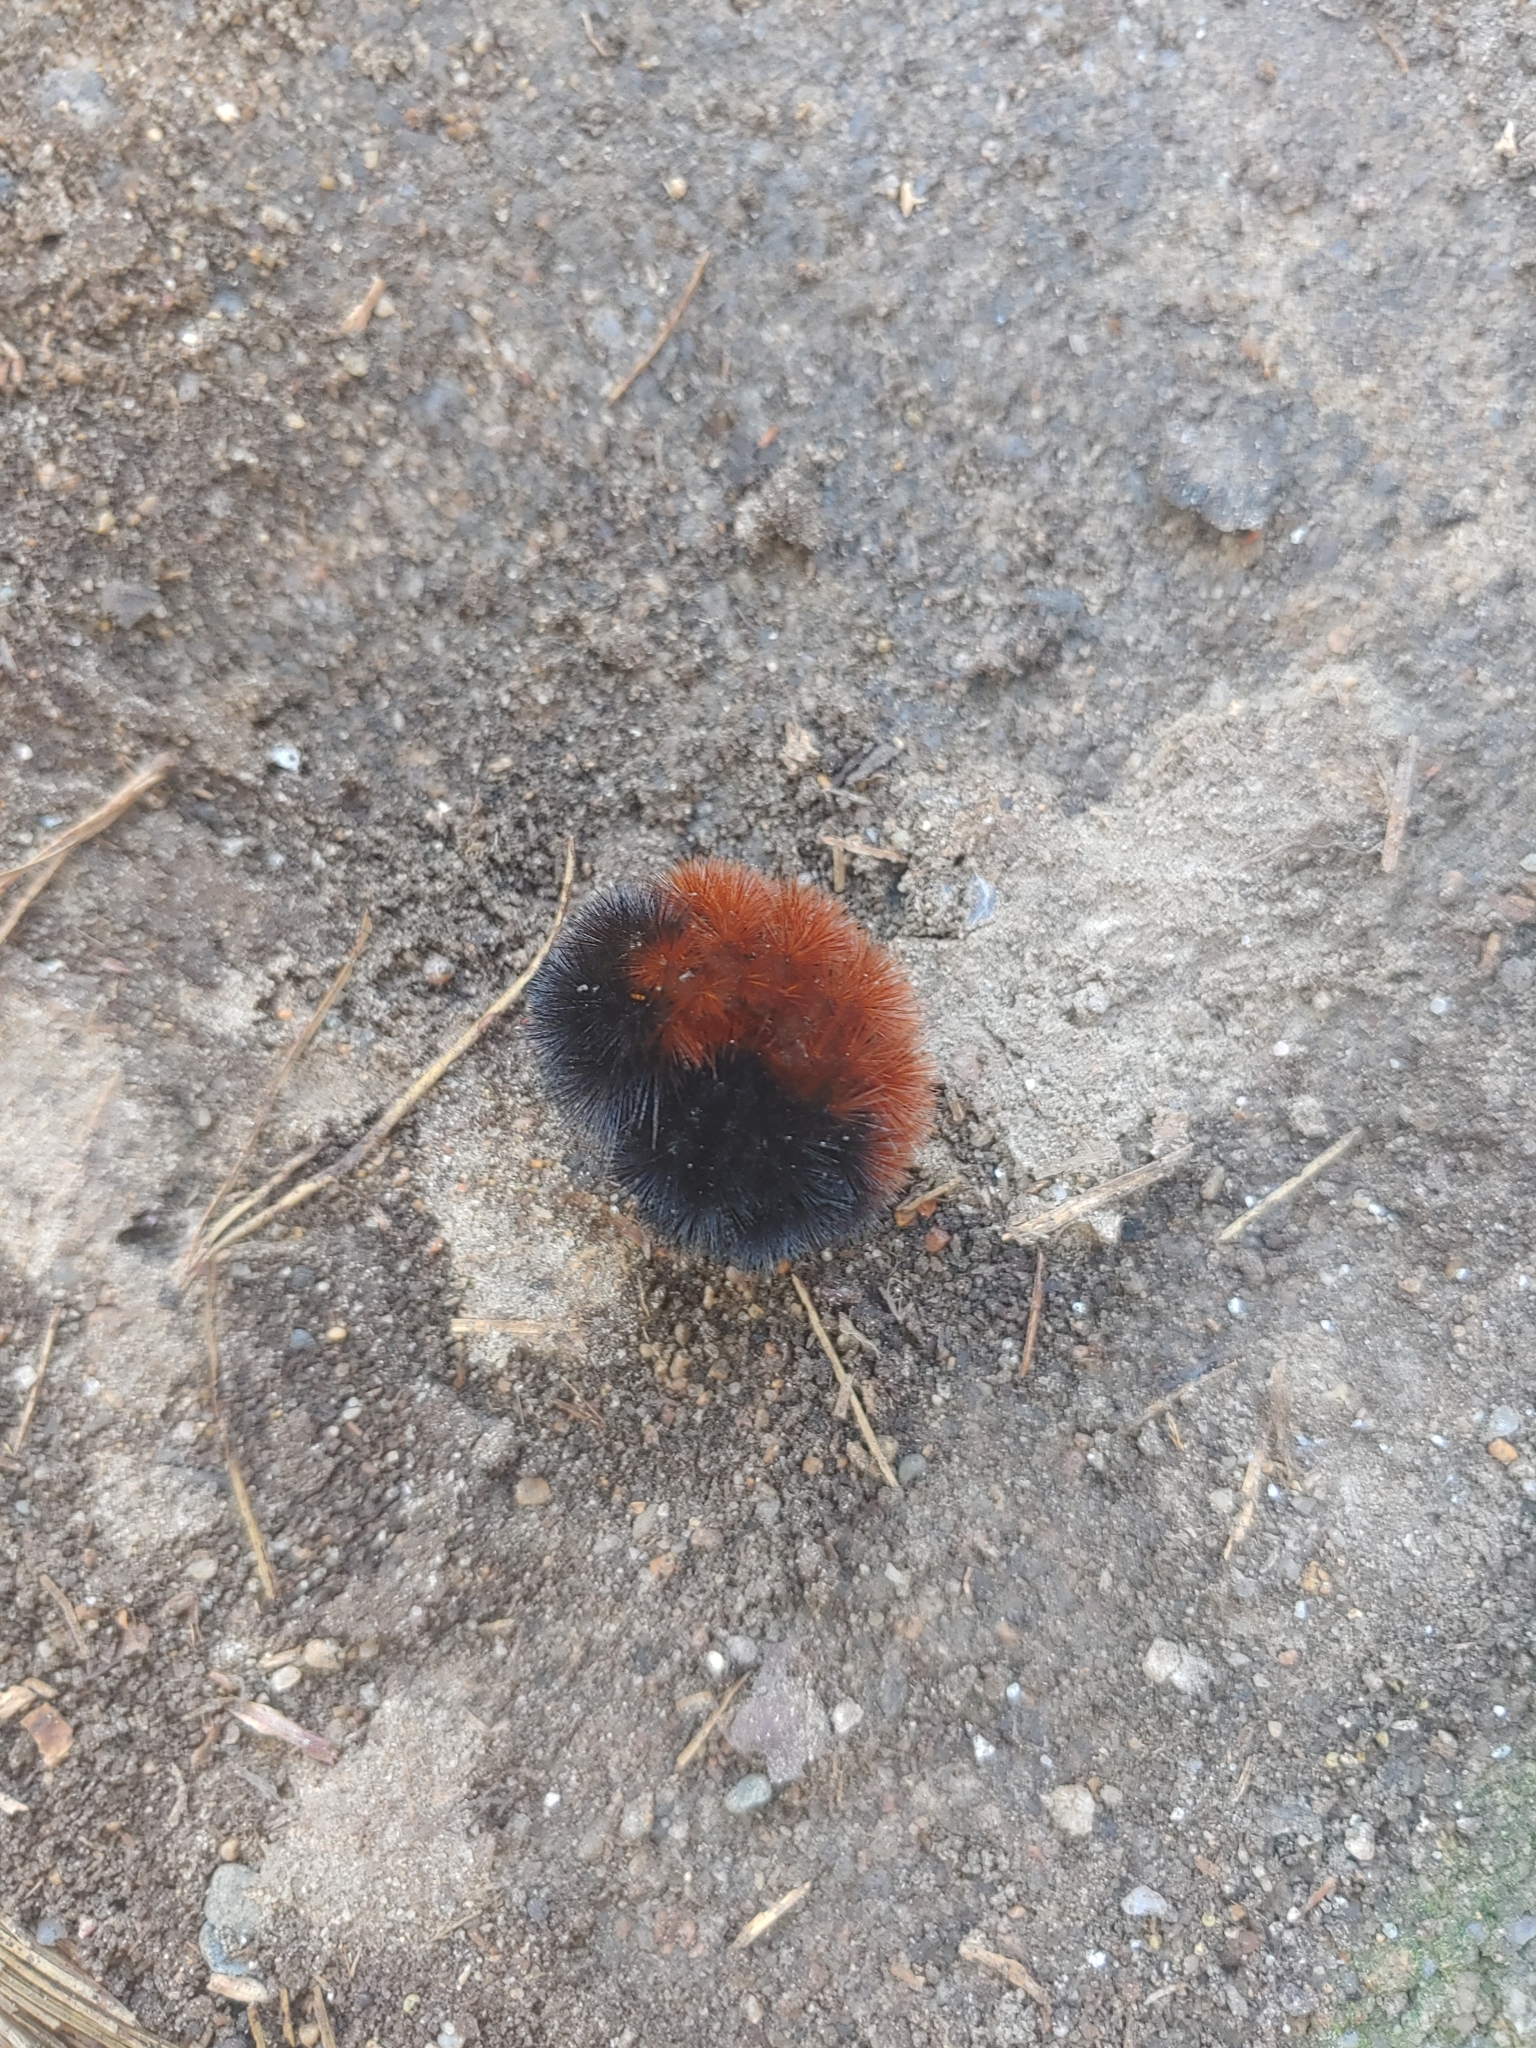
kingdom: Animalia
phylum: Arthropoda
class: Insecta
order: Lepidoptera
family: Erebidae
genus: Pyrrharctia
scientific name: Pyrrharctia isabella
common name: Isabella tiger moth
